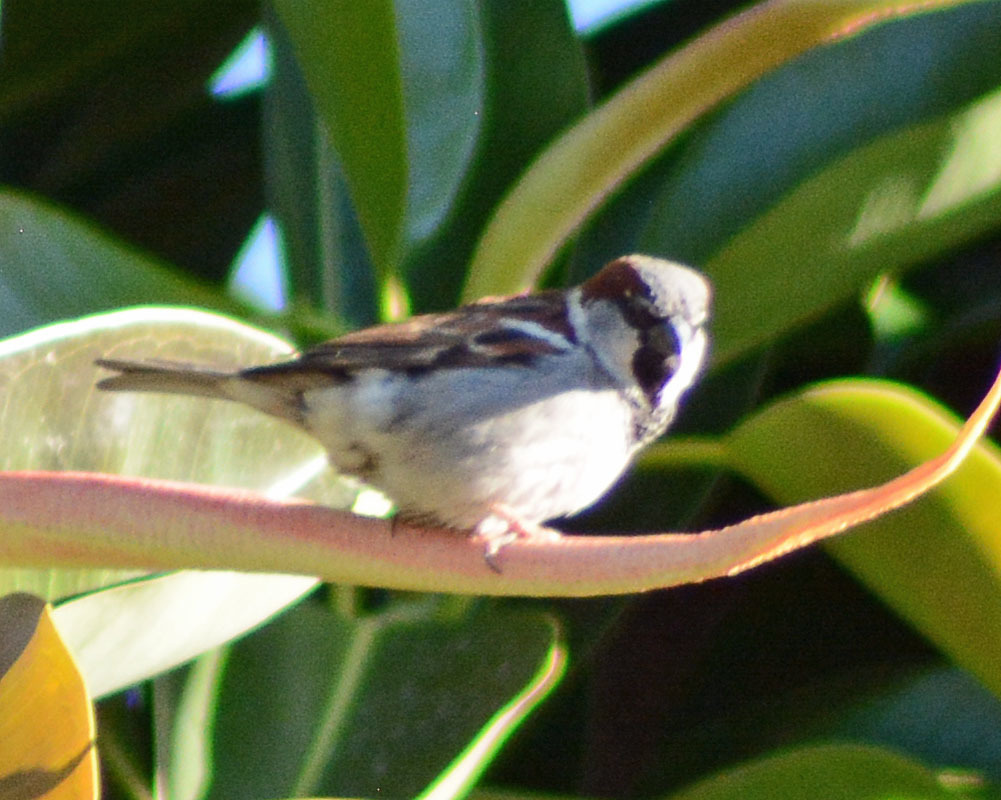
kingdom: Animalia
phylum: Chordata
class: Aves
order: Passeriformes
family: Passeridae
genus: Passer
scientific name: Passer domesticus
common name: House sparrow
